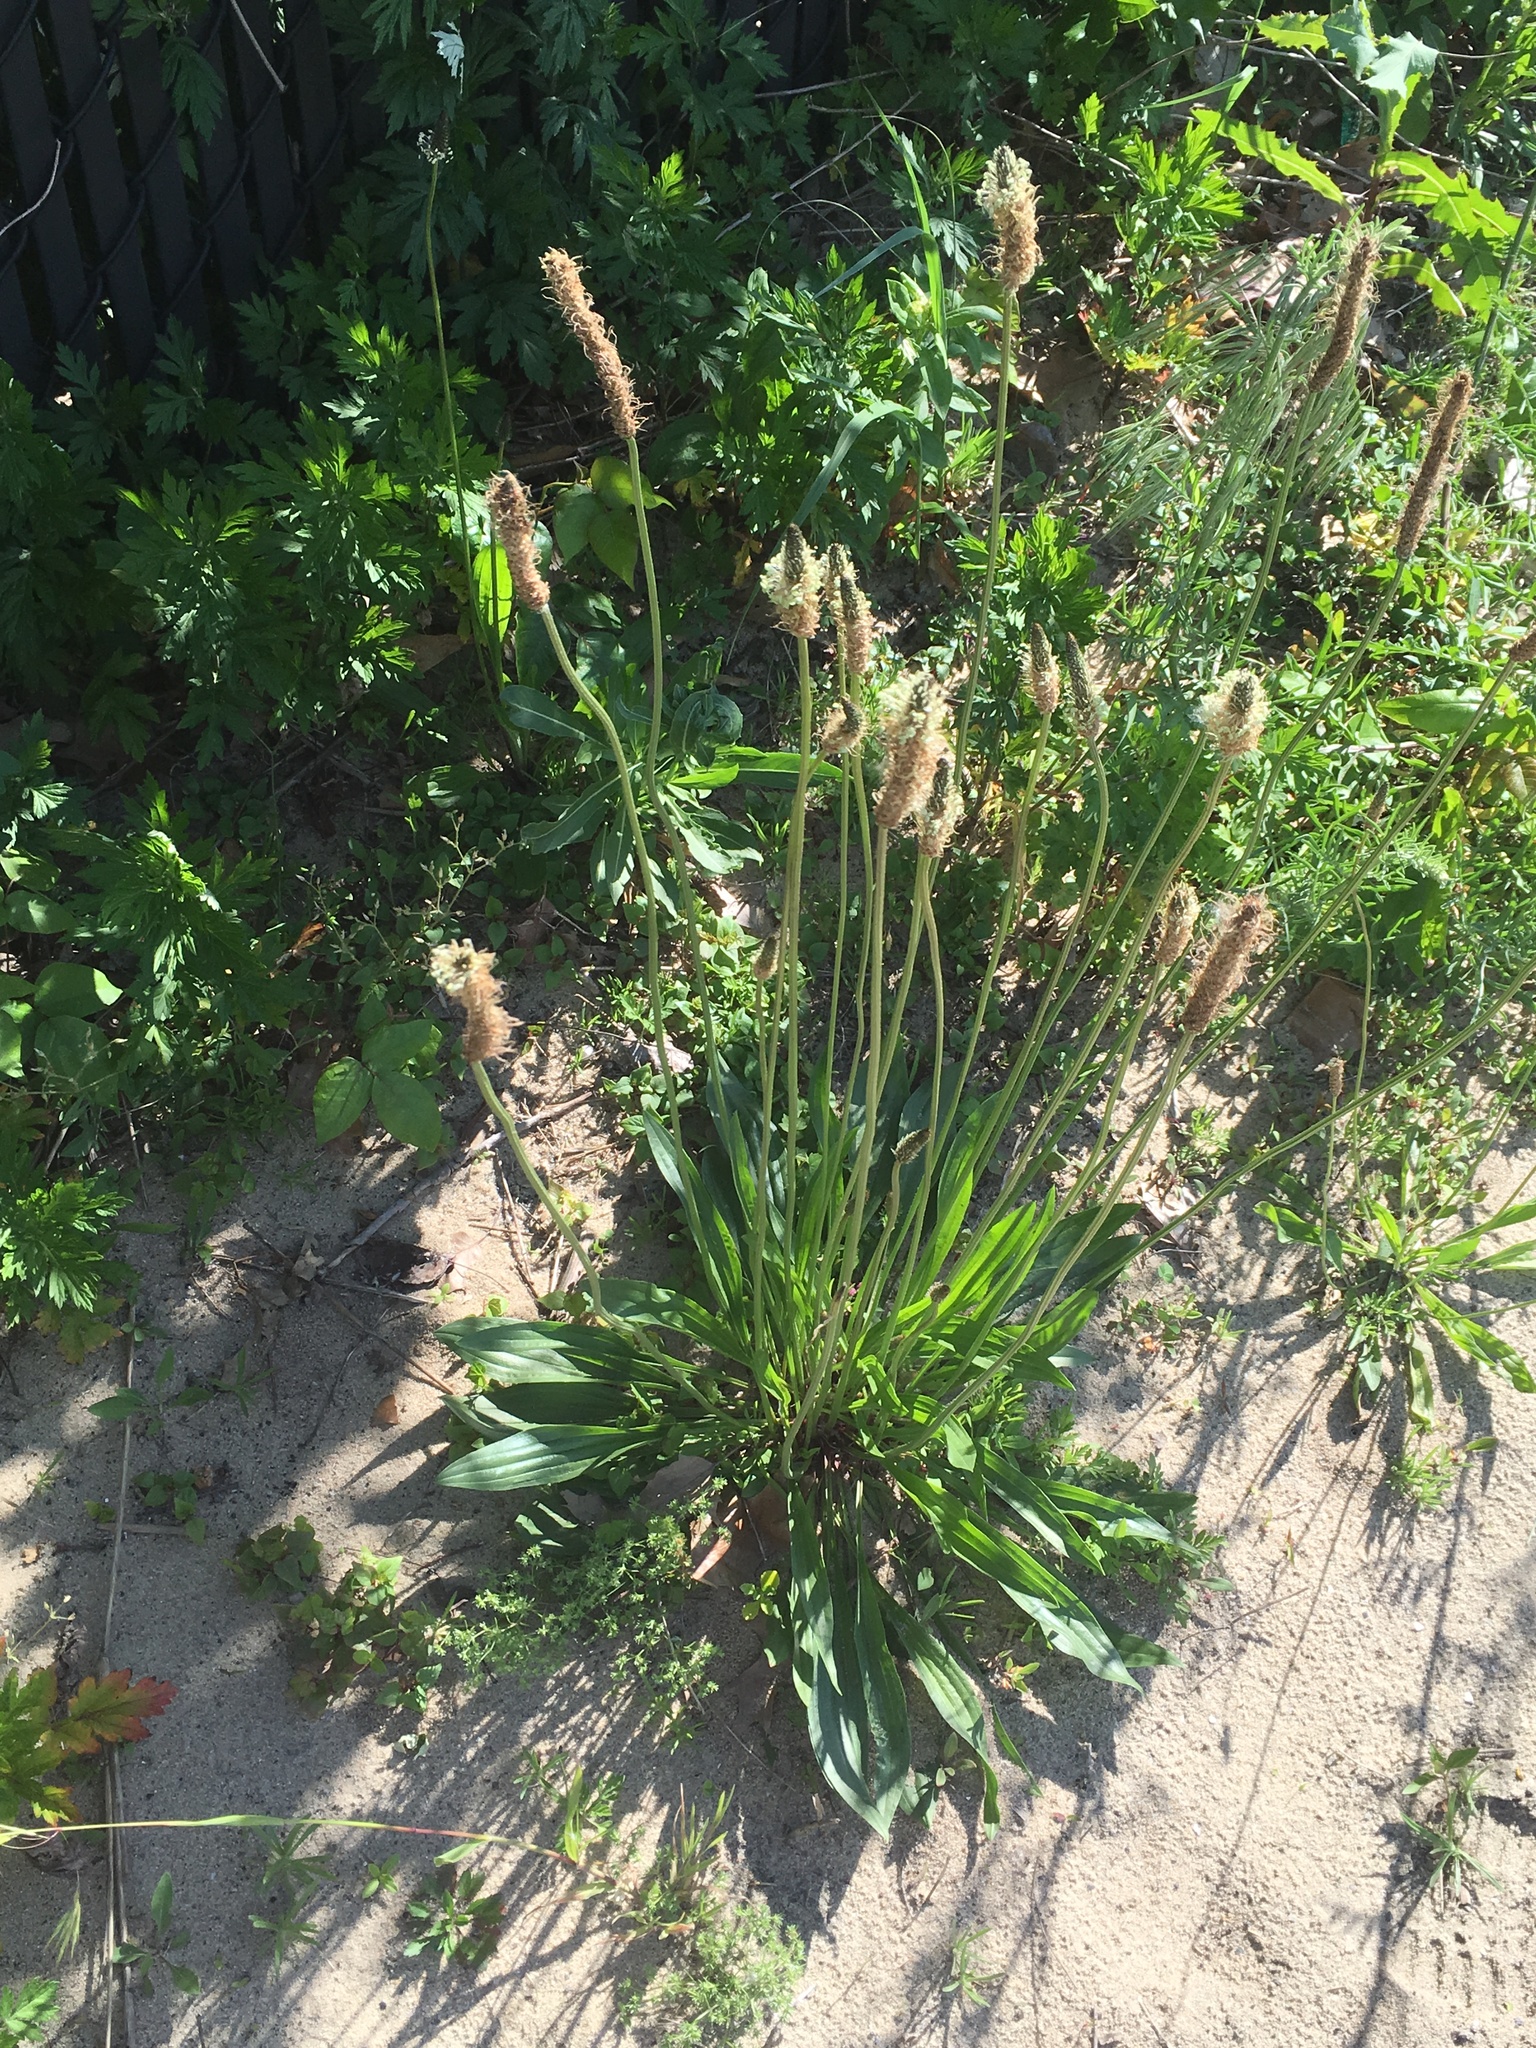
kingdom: Plantae
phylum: Tracheophyta
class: Magnoliopsida
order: Lamiales
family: Plantaginaceae
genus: Plantago
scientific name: Plantago lanceolata
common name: Ribwort plantain
